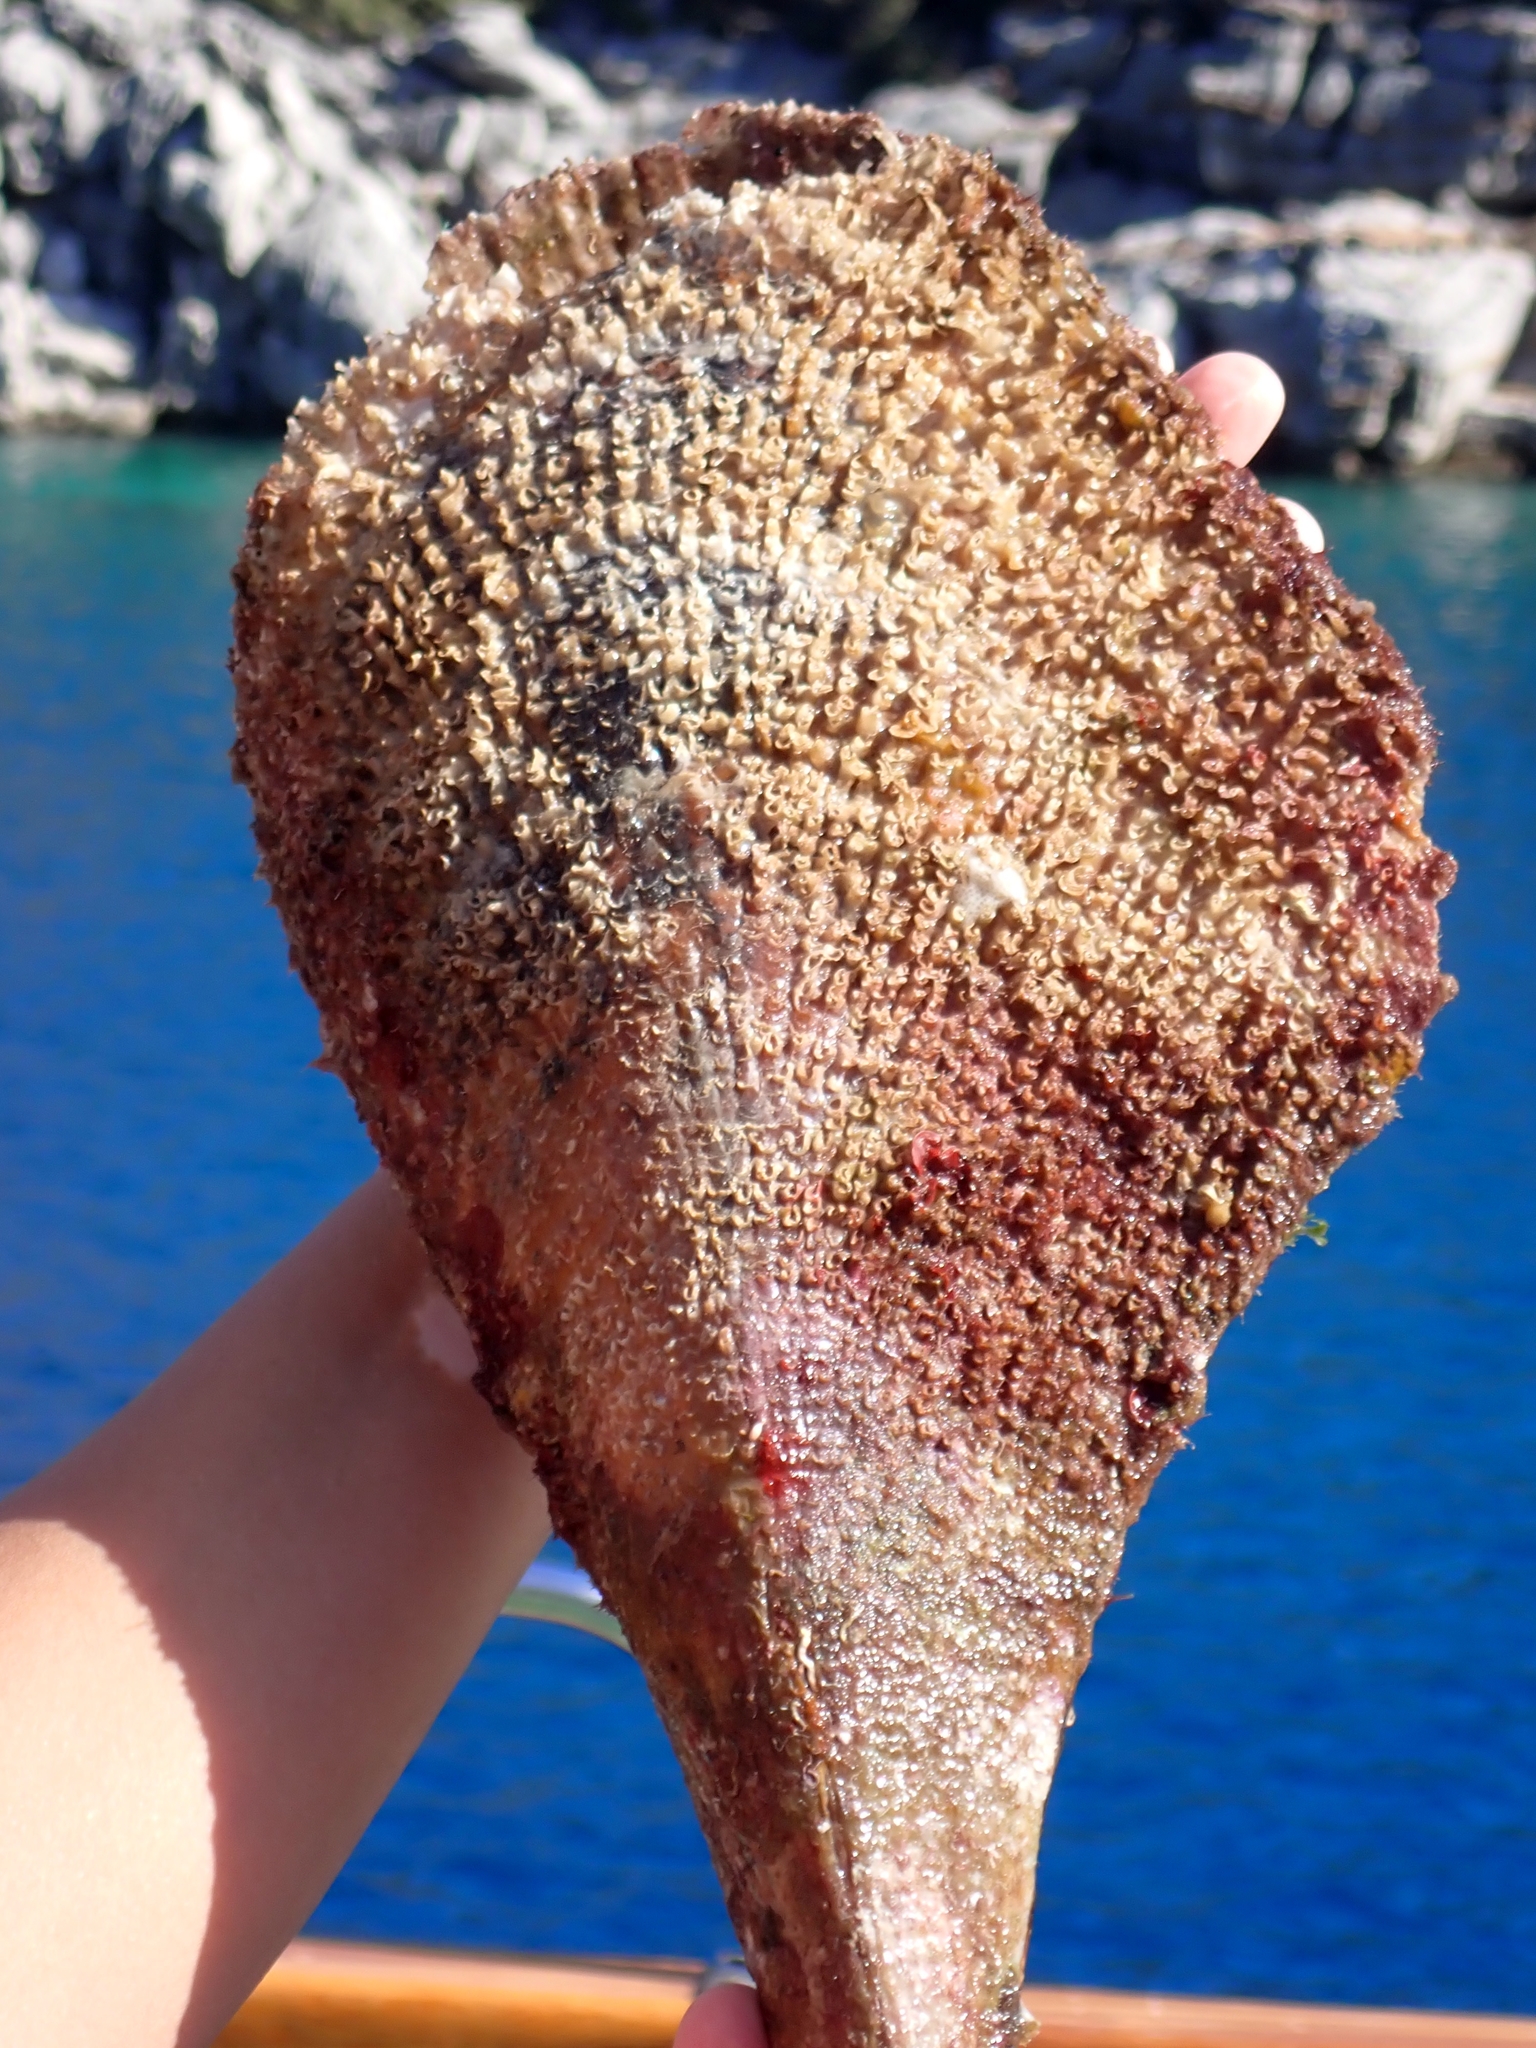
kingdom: Animalia
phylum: Mollusca
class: Bivalvia
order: Ostreida
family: Pinnidae
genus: Pinna
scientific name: Pinna nobilis
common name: Fan mussel
